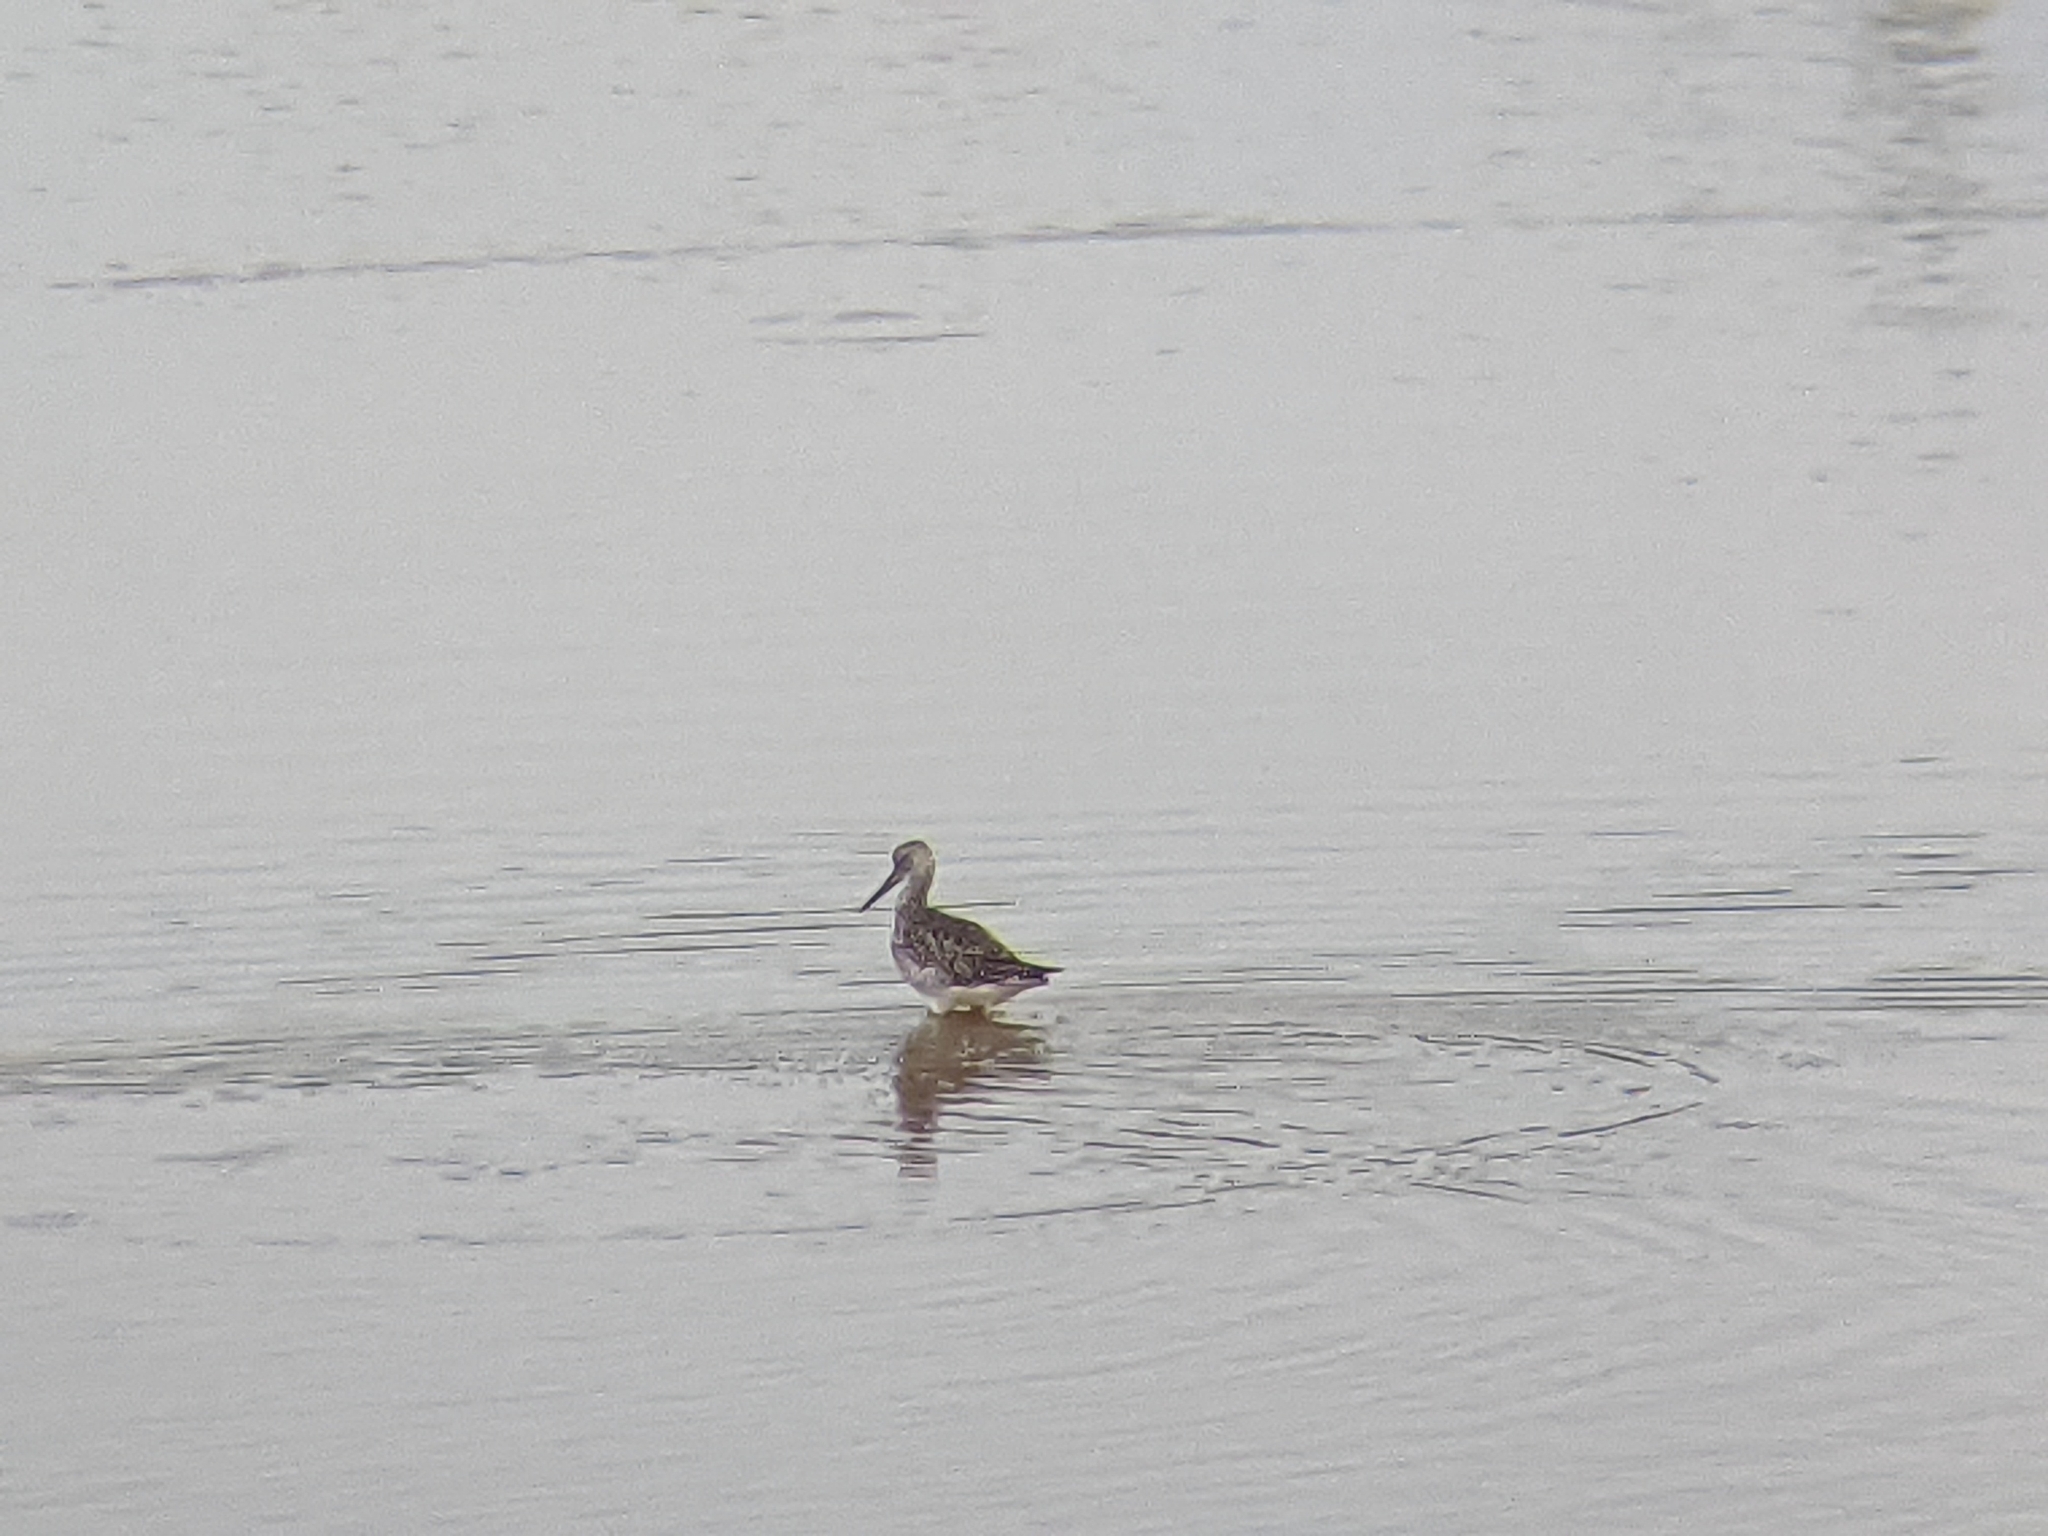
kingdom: Animalia
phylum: Chordata
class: Aves
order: Charadriiformes
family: Scolopacidae
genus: Tringa
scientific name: Tringa melanoleuca
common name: Greater yellowlegs
